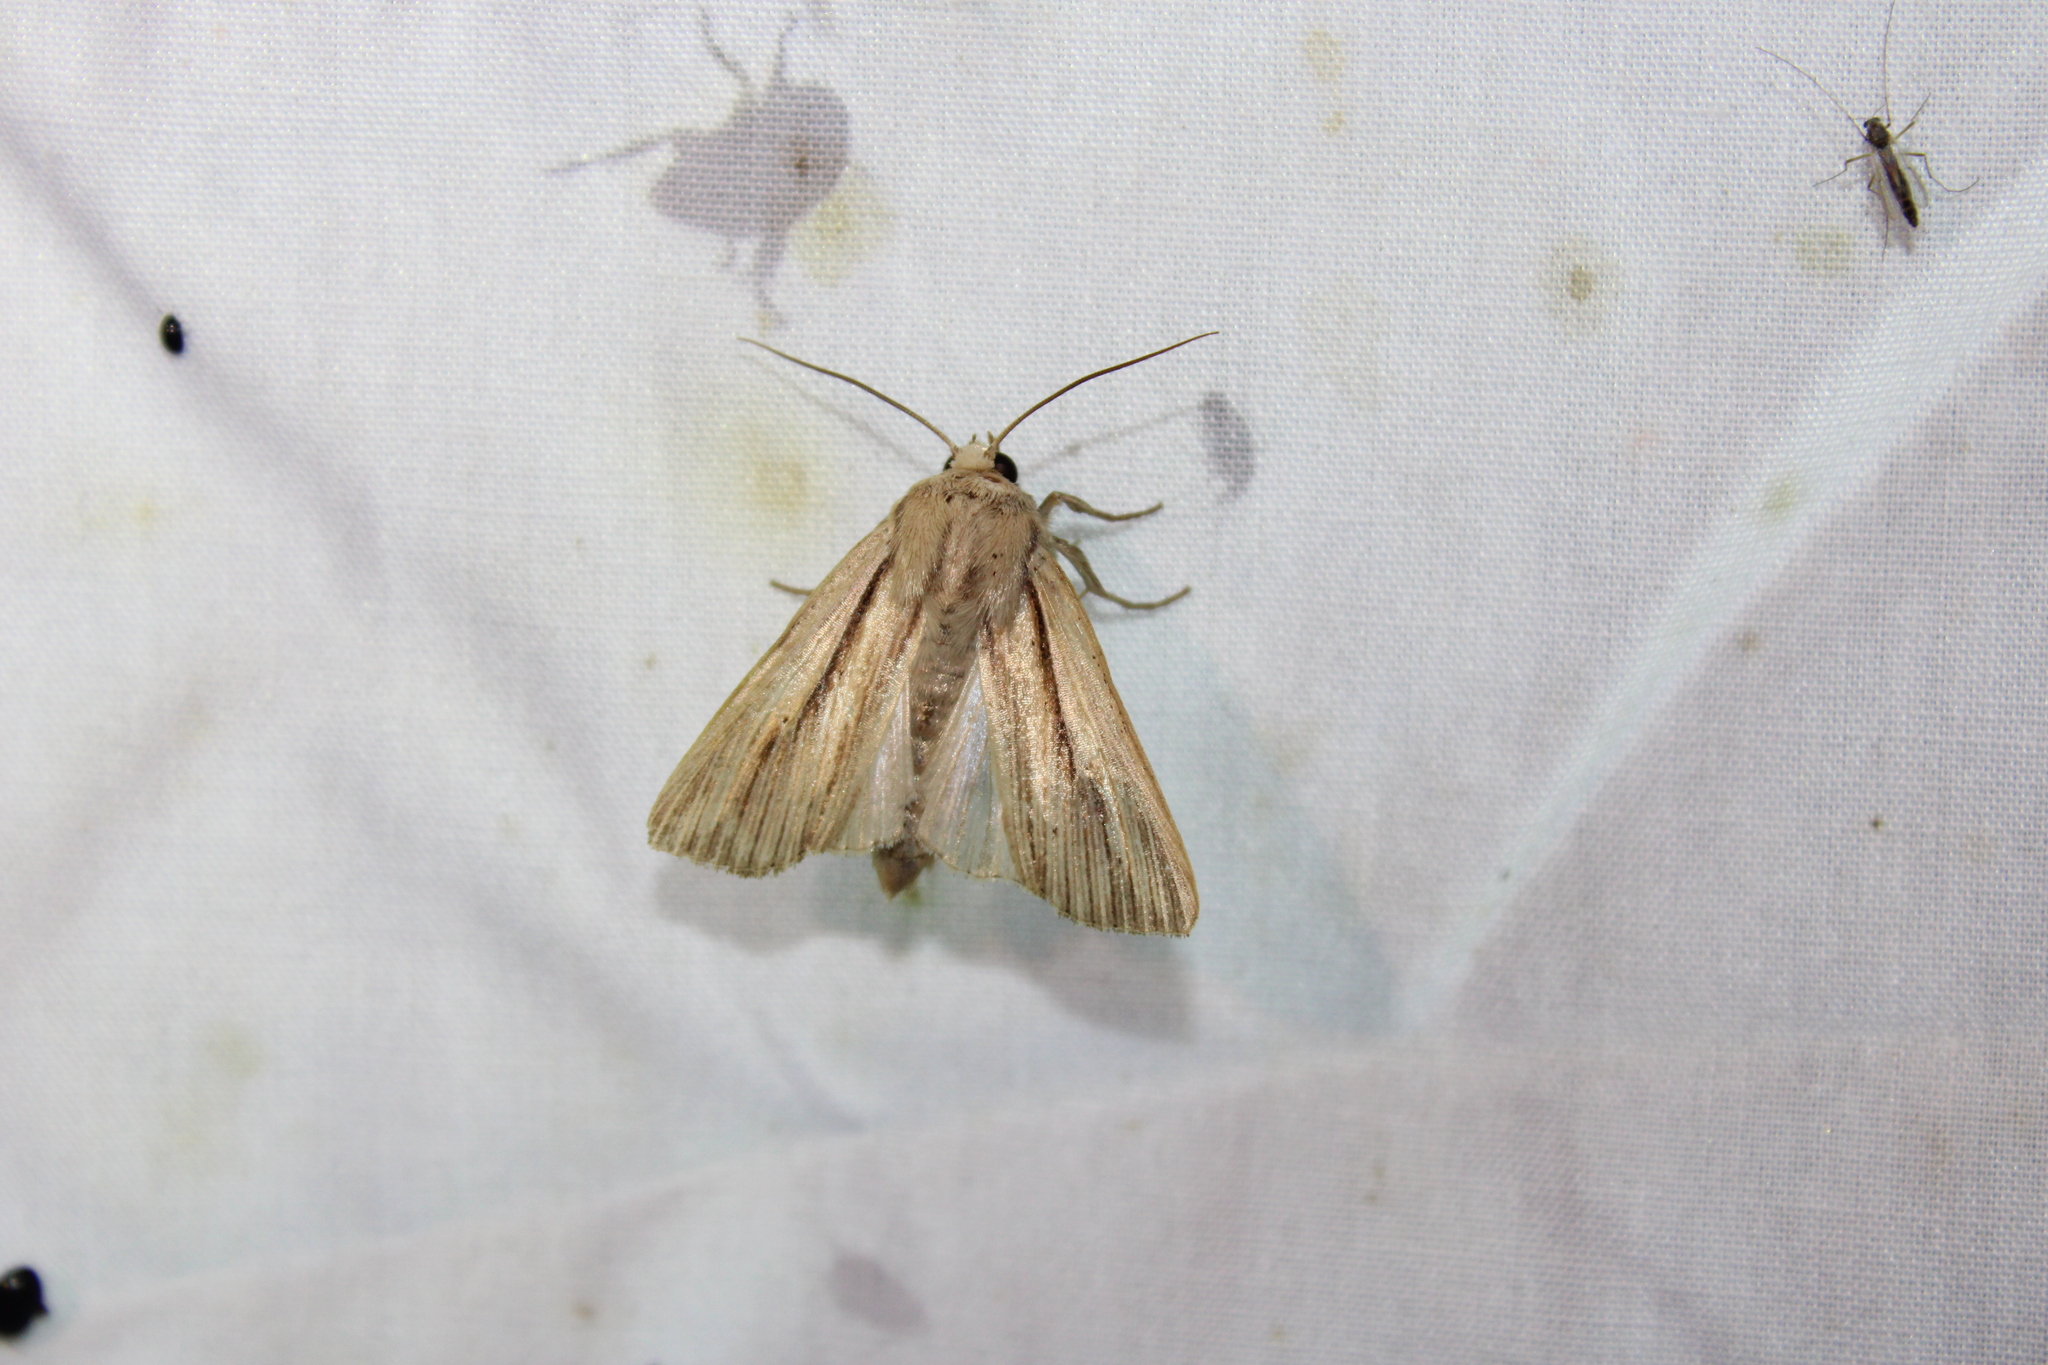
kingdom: Animalia
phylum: Arthropoda
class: Insecta
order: Lepidoptera
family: Noctuidae
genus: Leucania
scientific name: Leucania multilinea
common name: Many-lined wainscot
